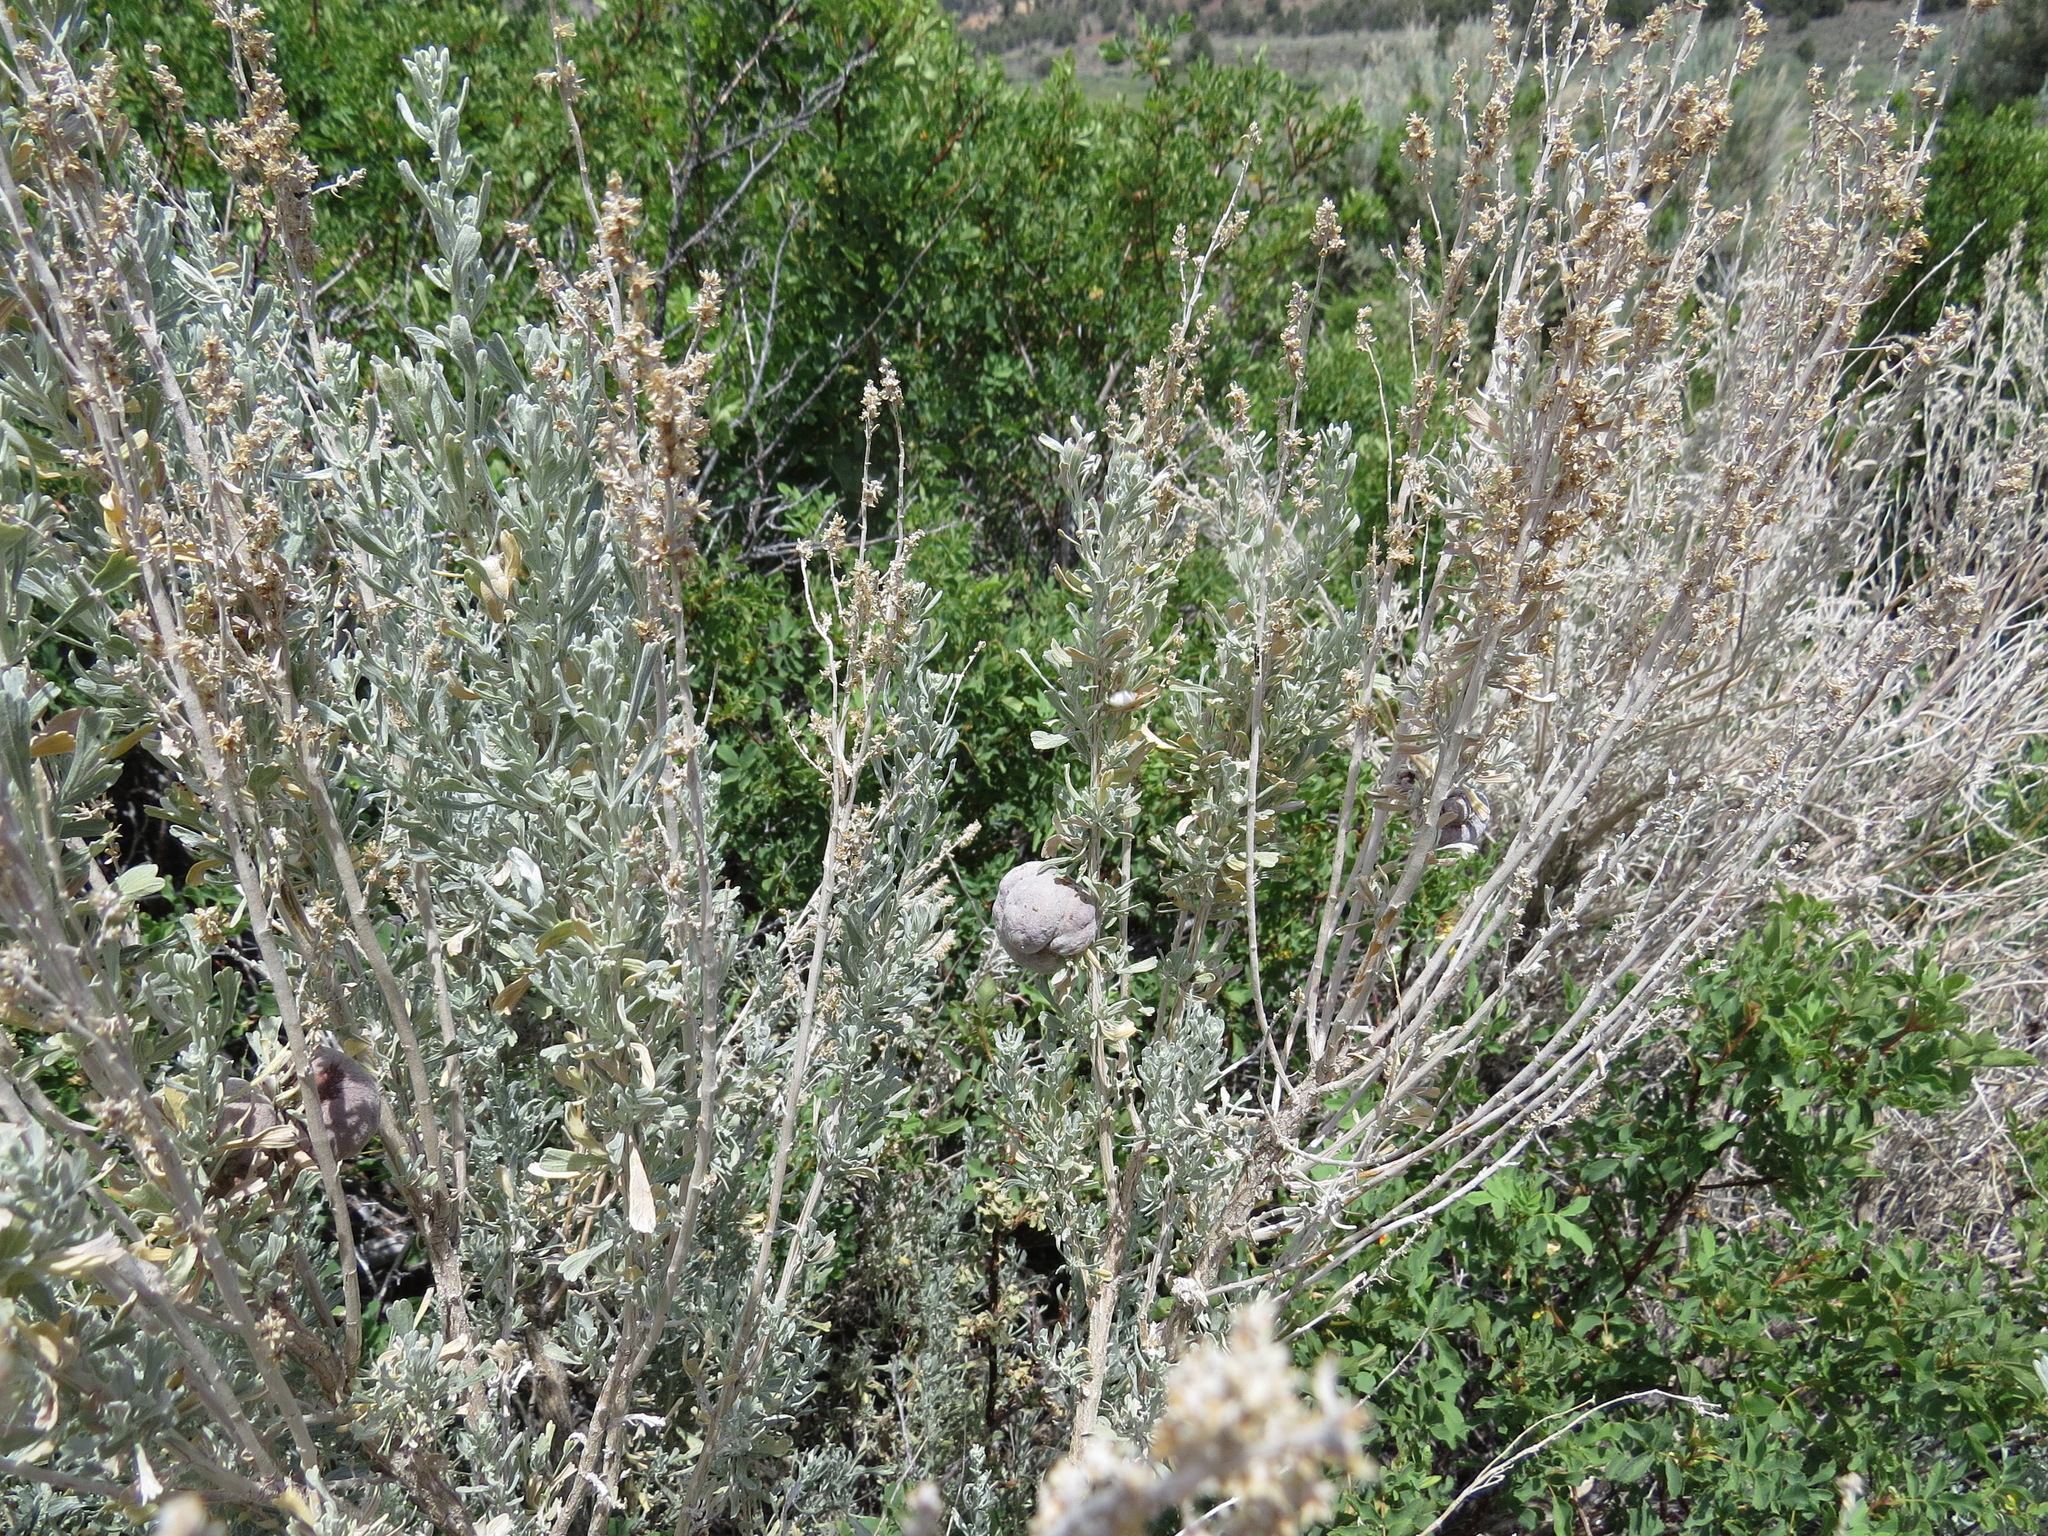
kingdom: Animalia
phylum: Arthropoda
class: Insecta
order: Diptera
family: Cecidomyiidae
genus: Rhopalomyia
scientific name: Rhopalomyia pomum
